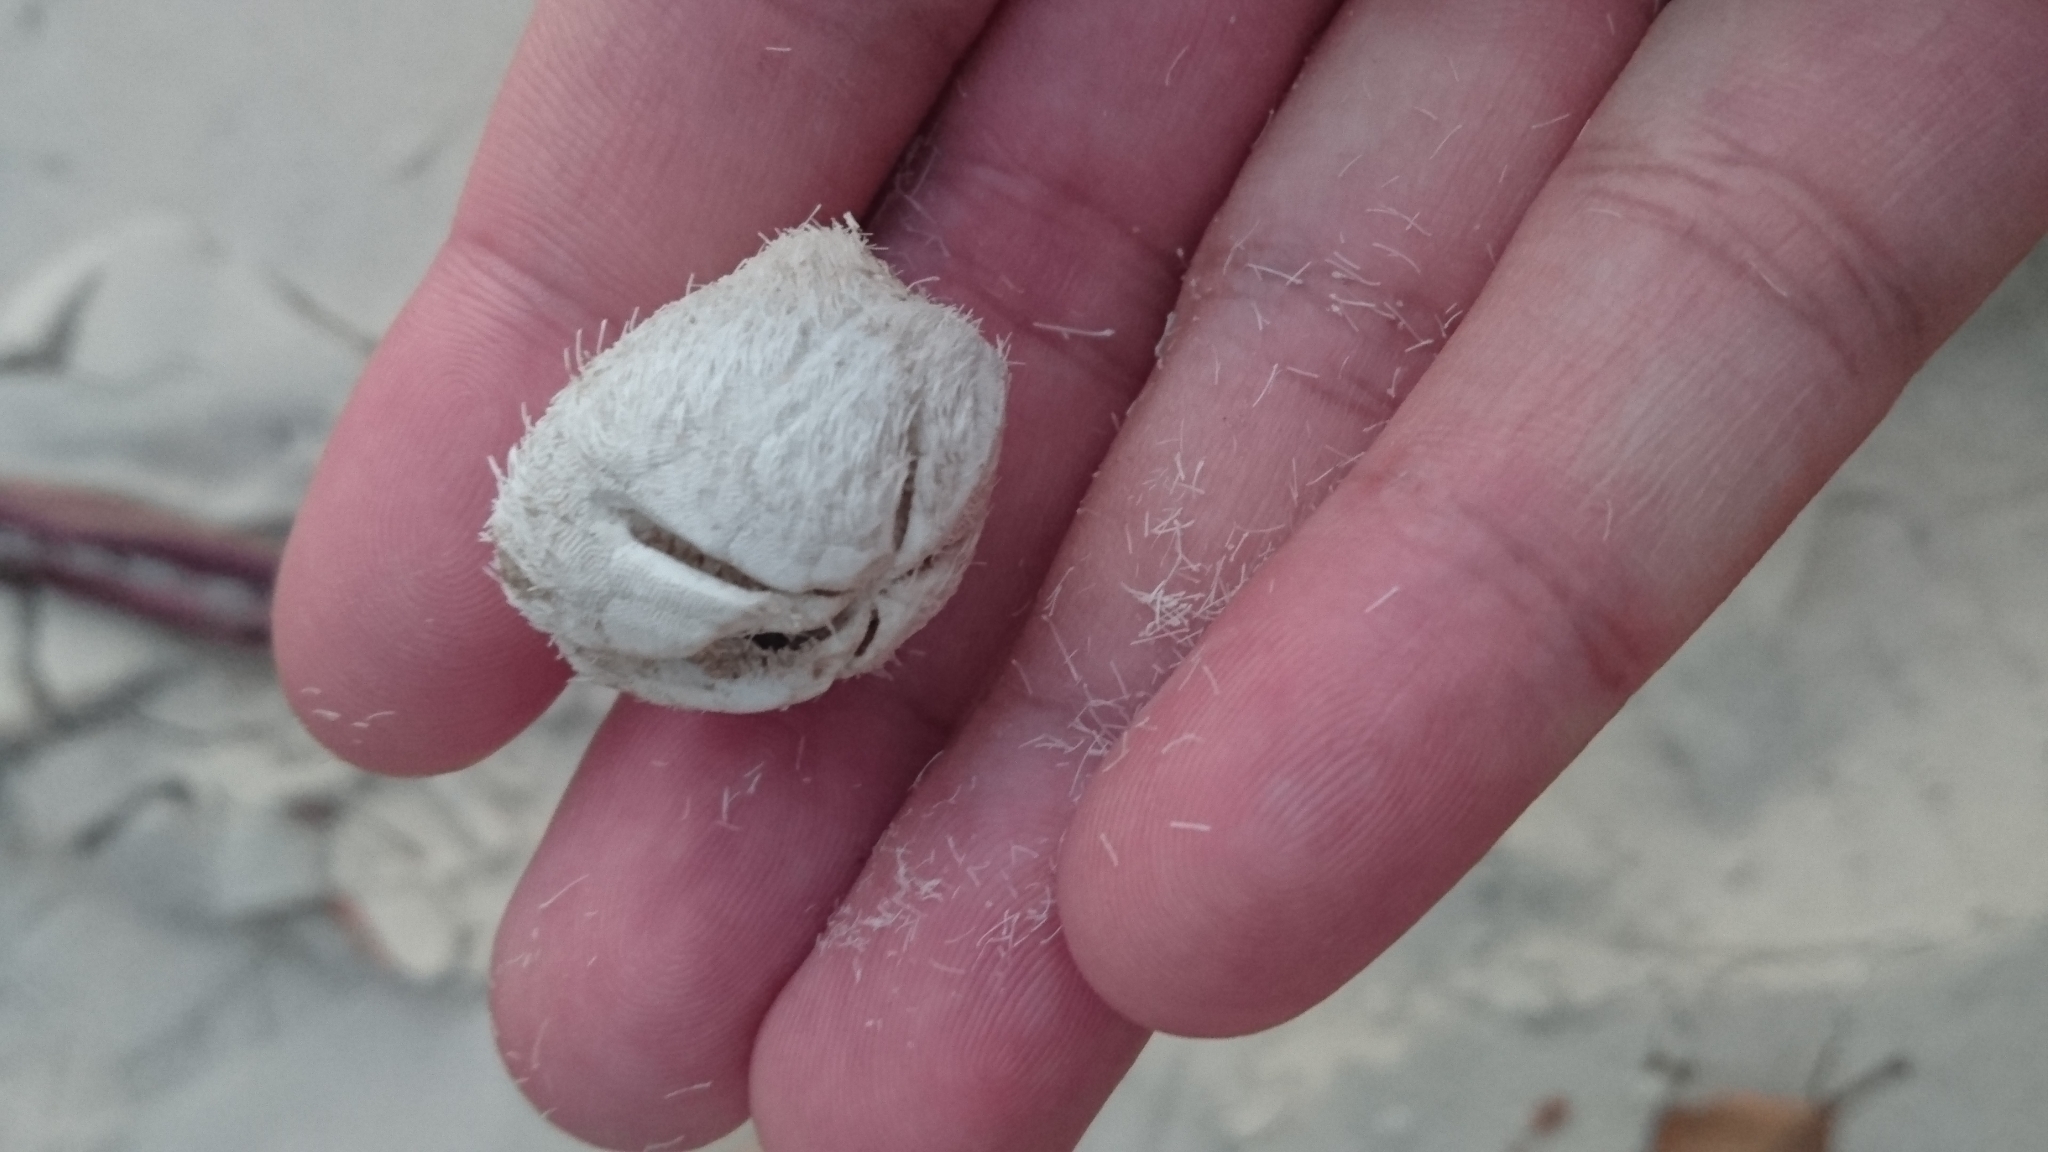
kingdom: Animalia
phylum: Echinodermata
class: Echinoidea
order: Spatangoida
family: Schizasteridae
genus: Moira
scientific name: Moira lethe
